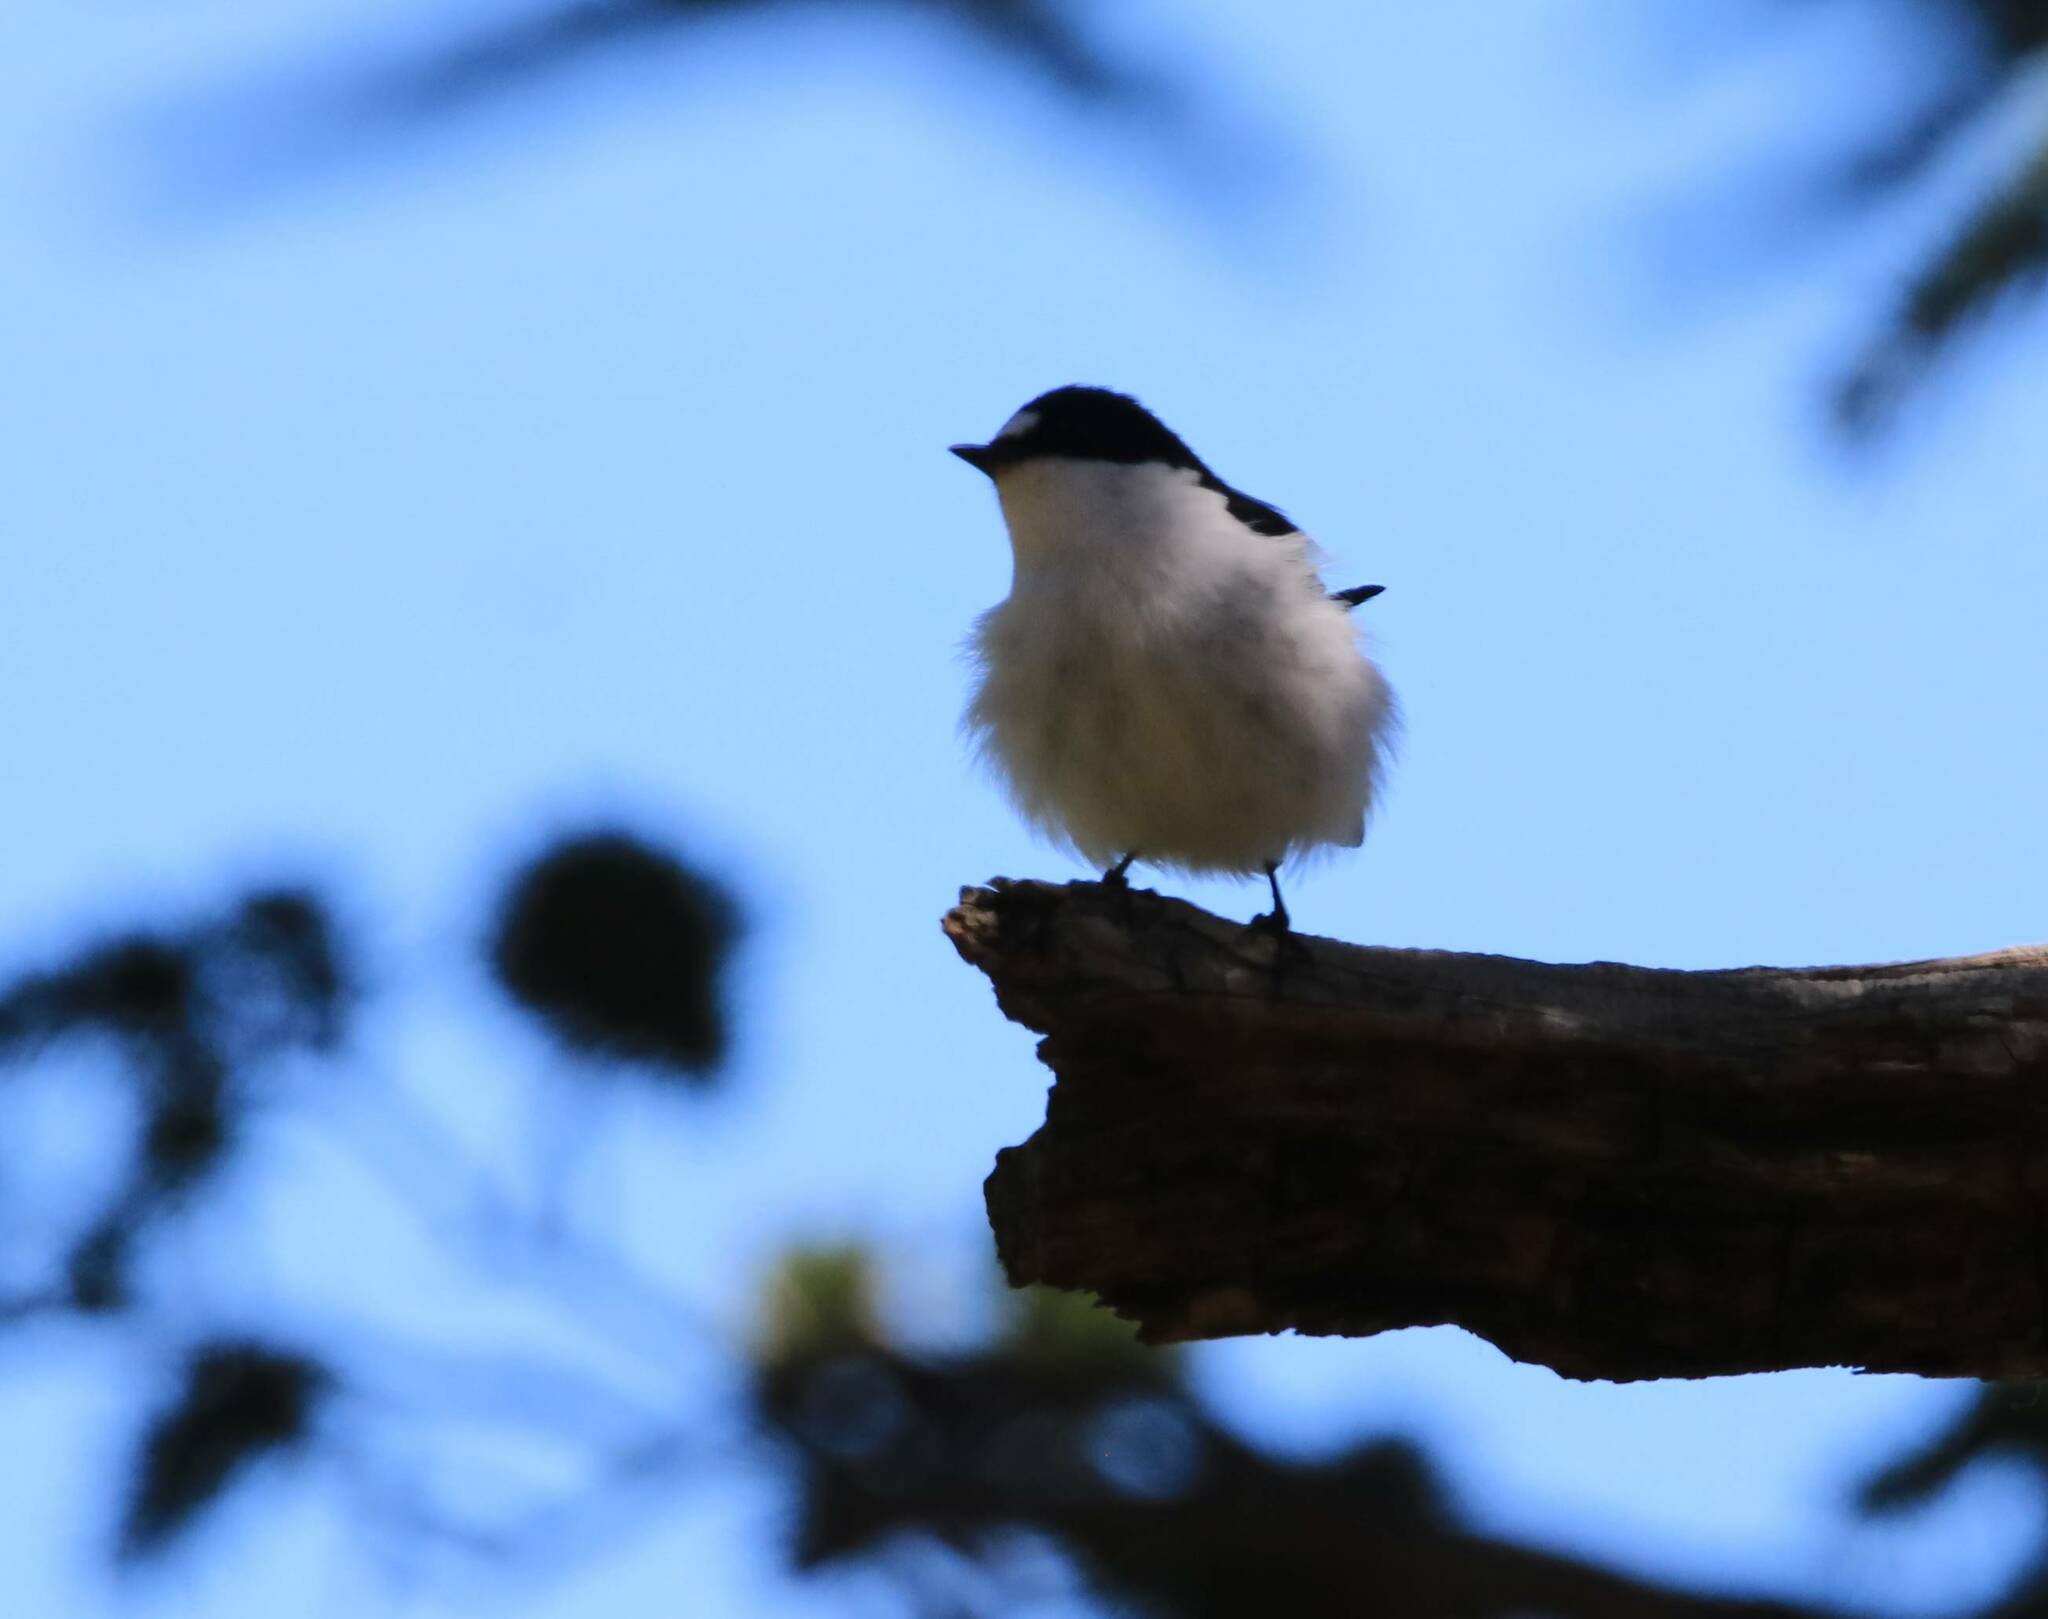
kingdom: Animalia
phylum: Chordata
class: Aves
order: Passeriformes
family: Muscicapidae
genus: Ficedula
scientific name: Ficedula speculigera
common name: Atlas pied flycatcher
